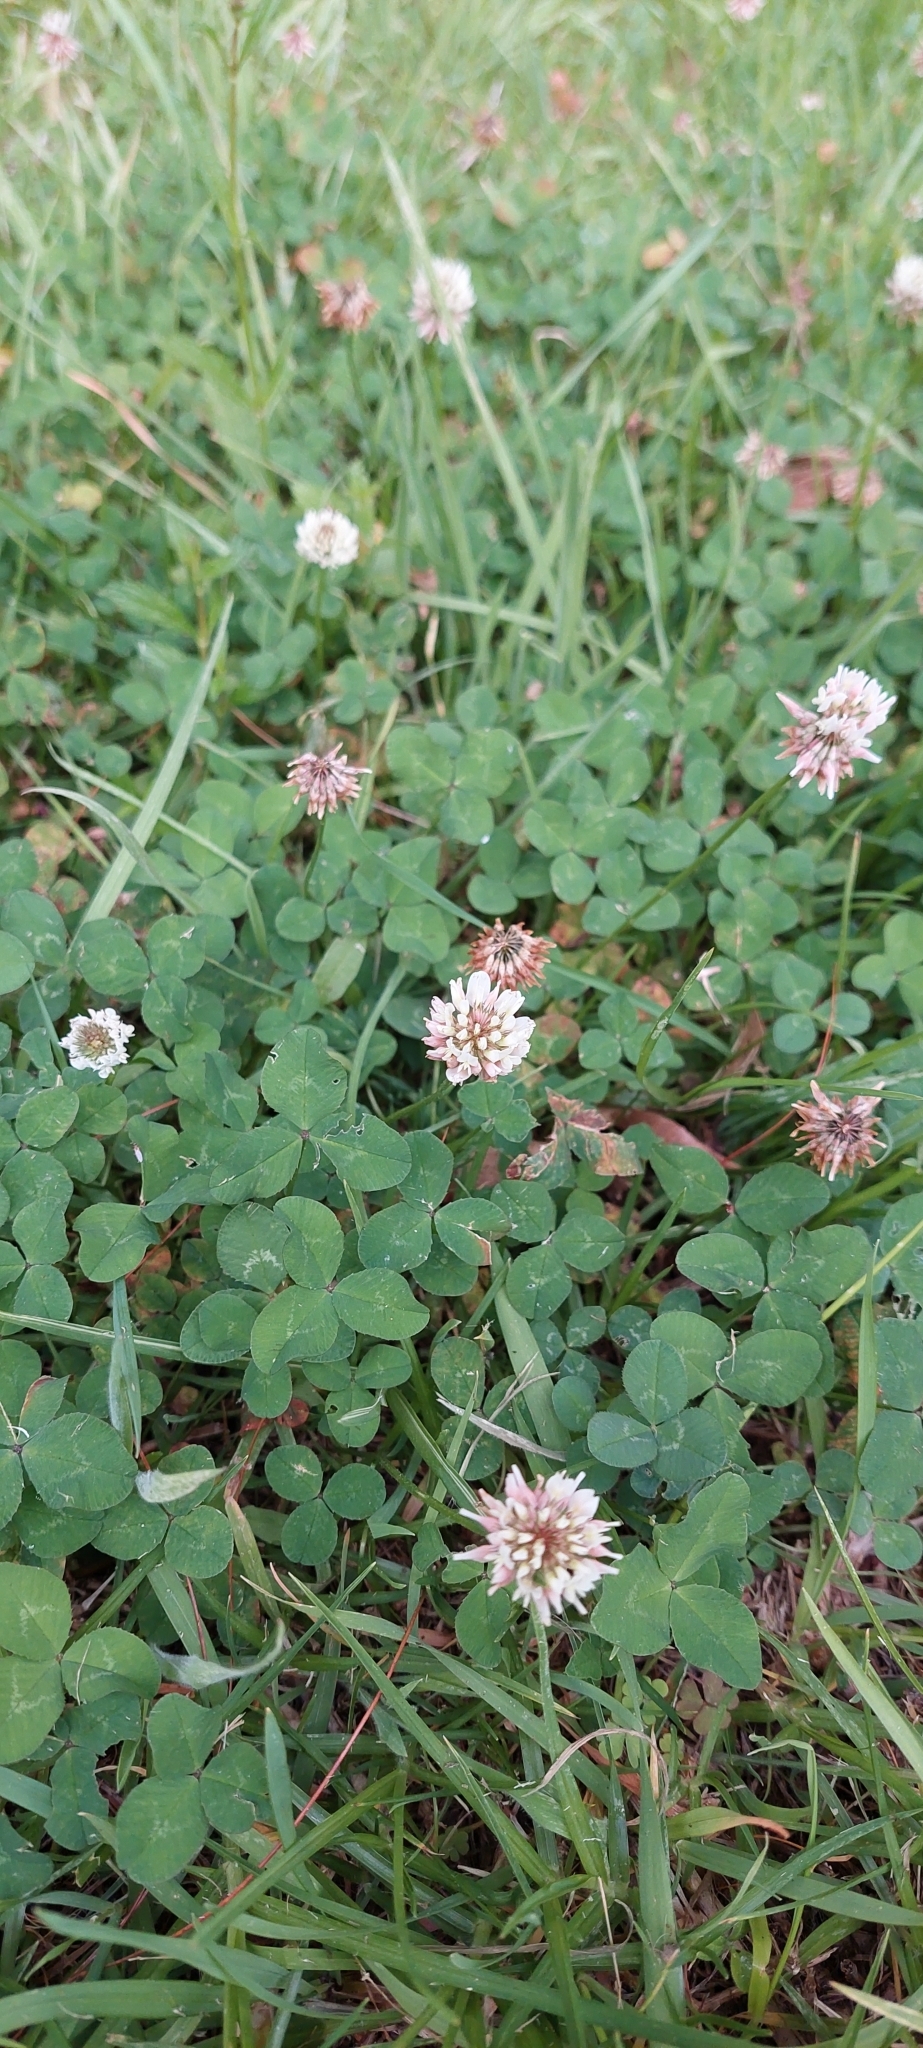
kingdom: Plantae
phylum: Tracheophyta
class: Magnoliopsida
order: Fabales
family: Fabaceae
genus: Trifolium
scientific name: Trifolium repens
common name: White clover
